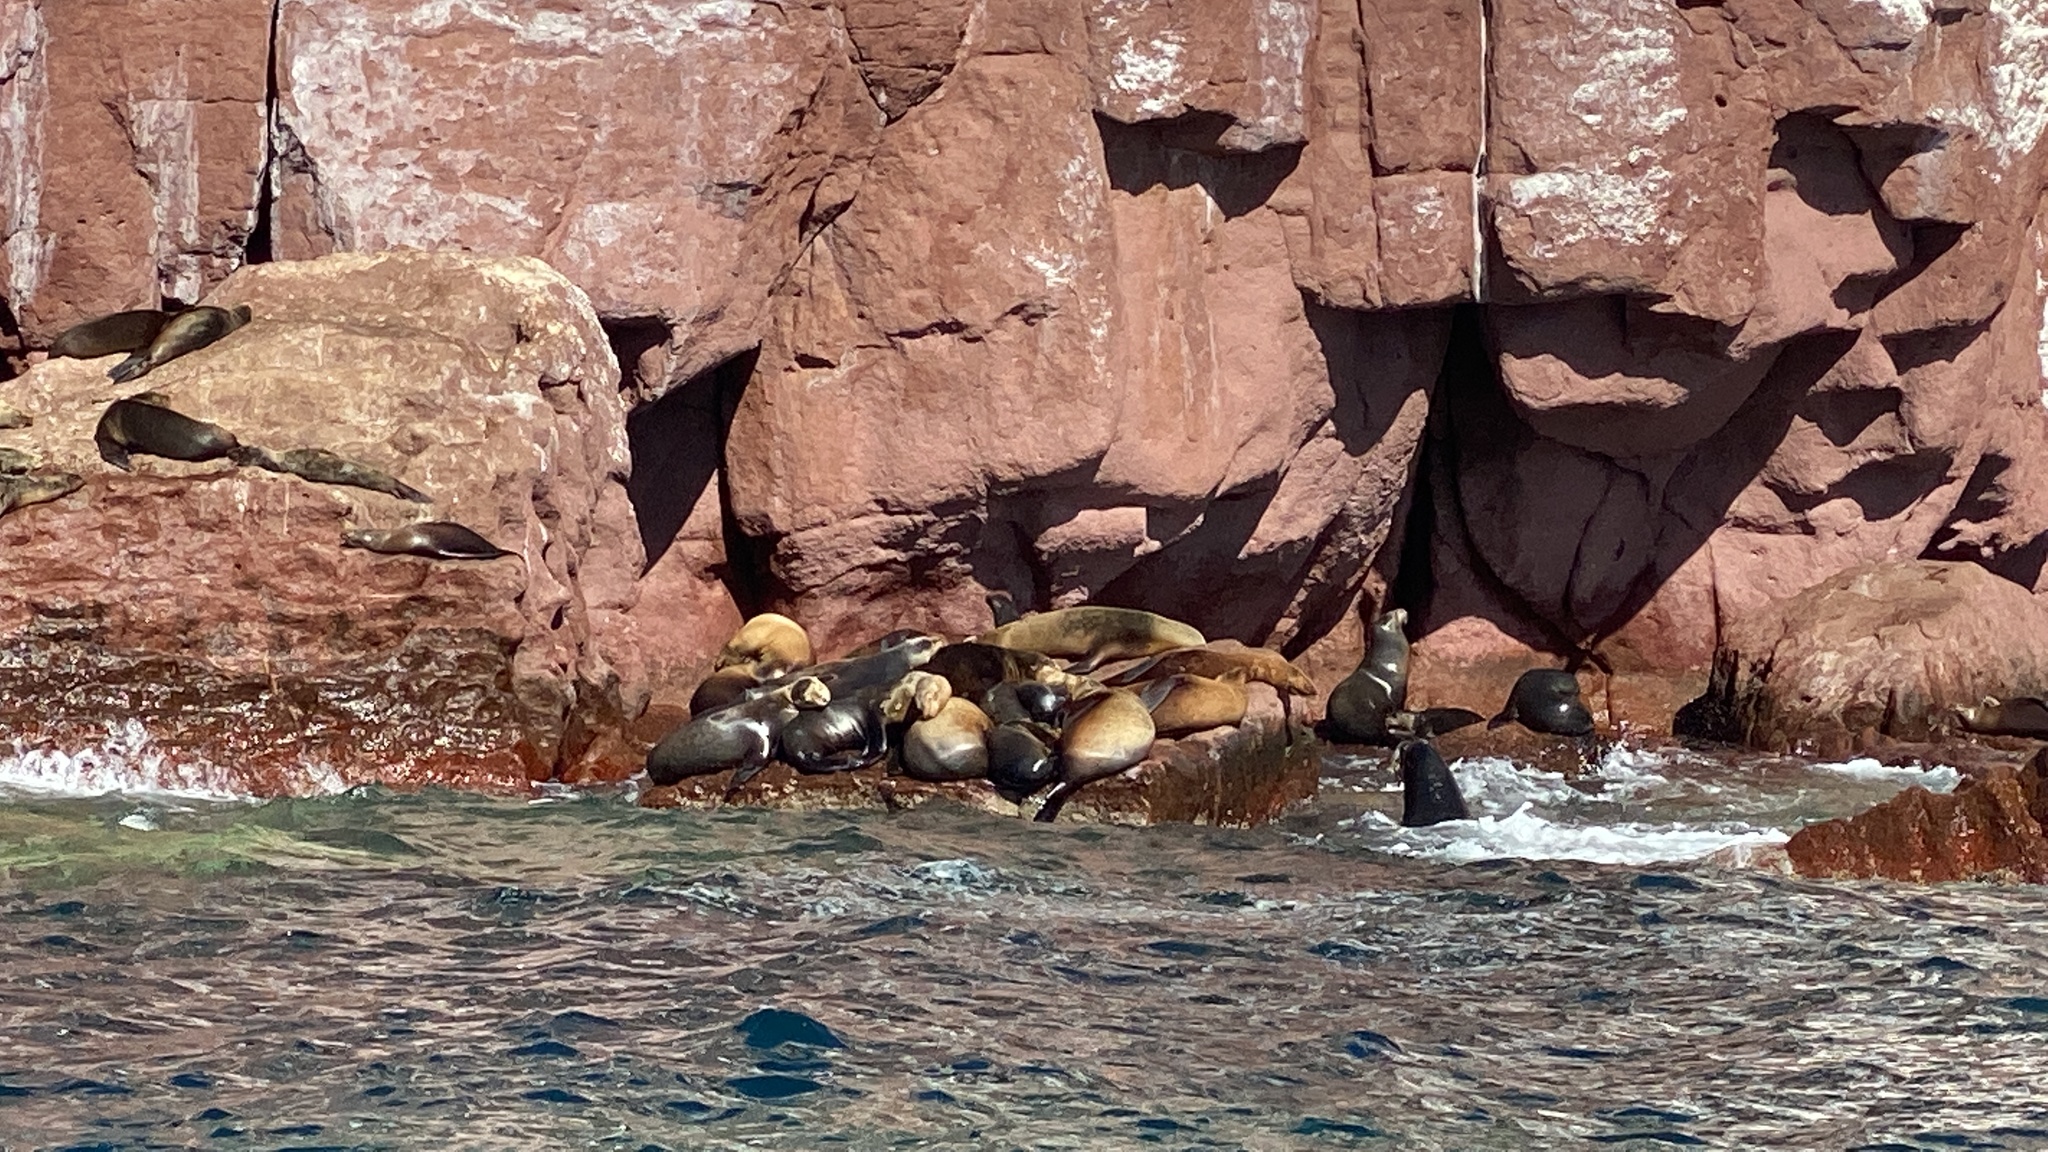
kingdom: Animalia
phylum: Chordata
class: Mammalia
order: Carnivora
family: Otariidae
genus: Zalophus
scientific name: Zalophus californianus
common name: California sea lion
